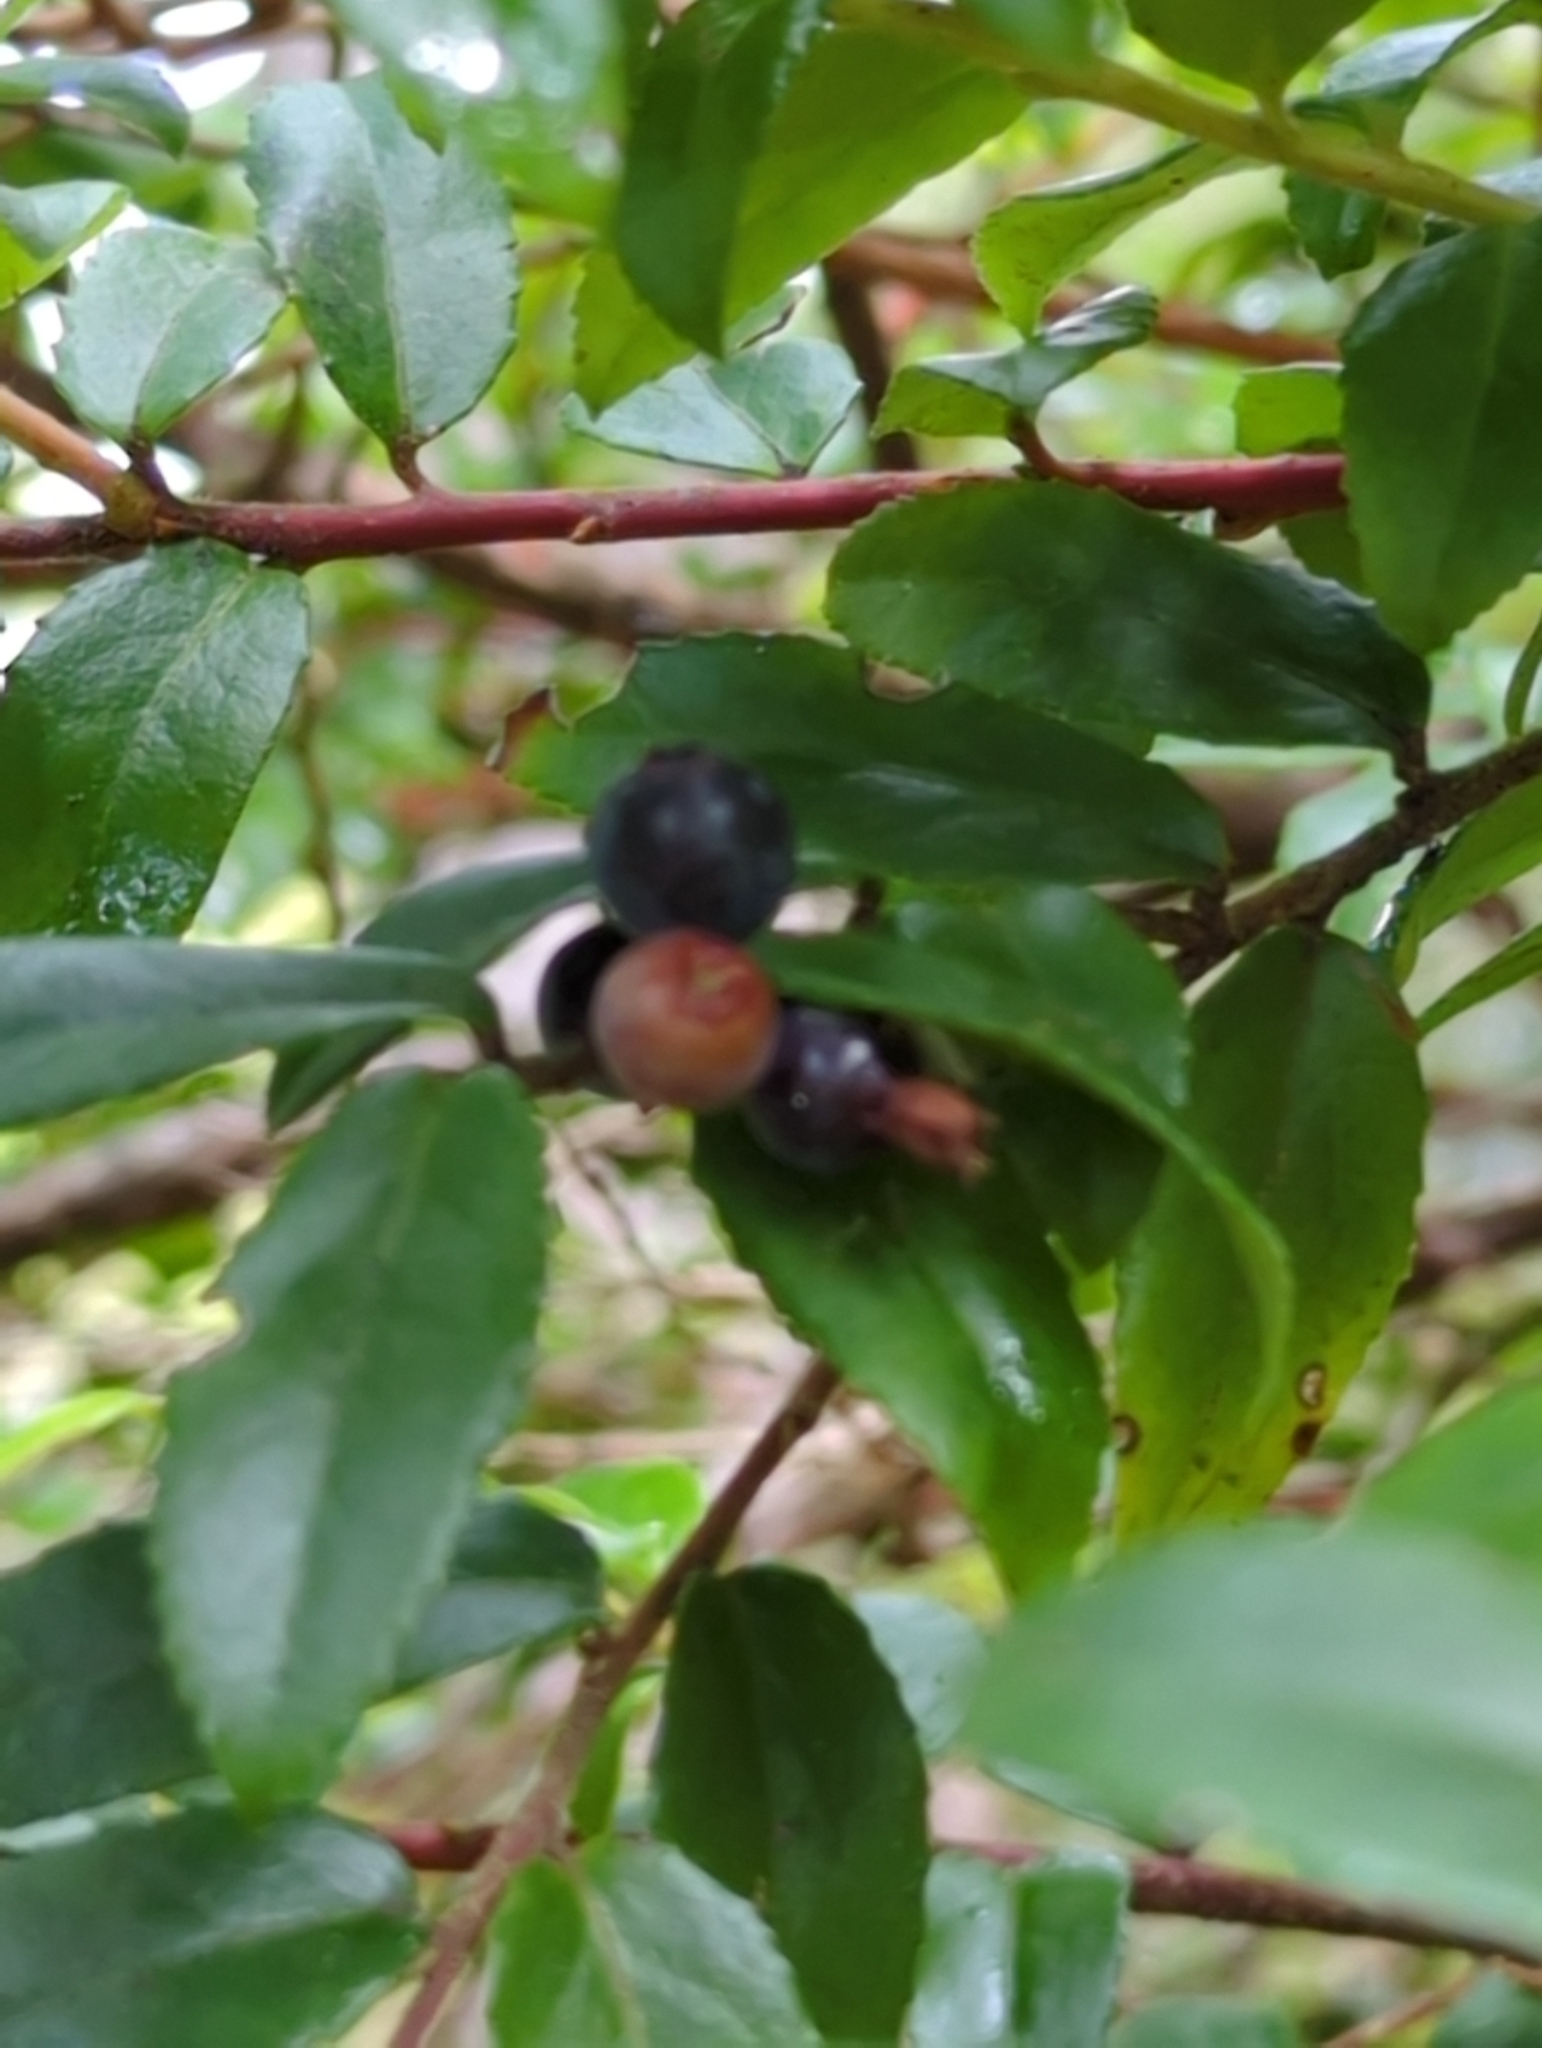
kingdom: Plantae
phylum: Tracheophyta
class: Magnoliopsida
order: Ericales
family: Ericaceae
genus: Vaccinium
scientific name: Vaccinium ovatum
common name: California-huckleberry
